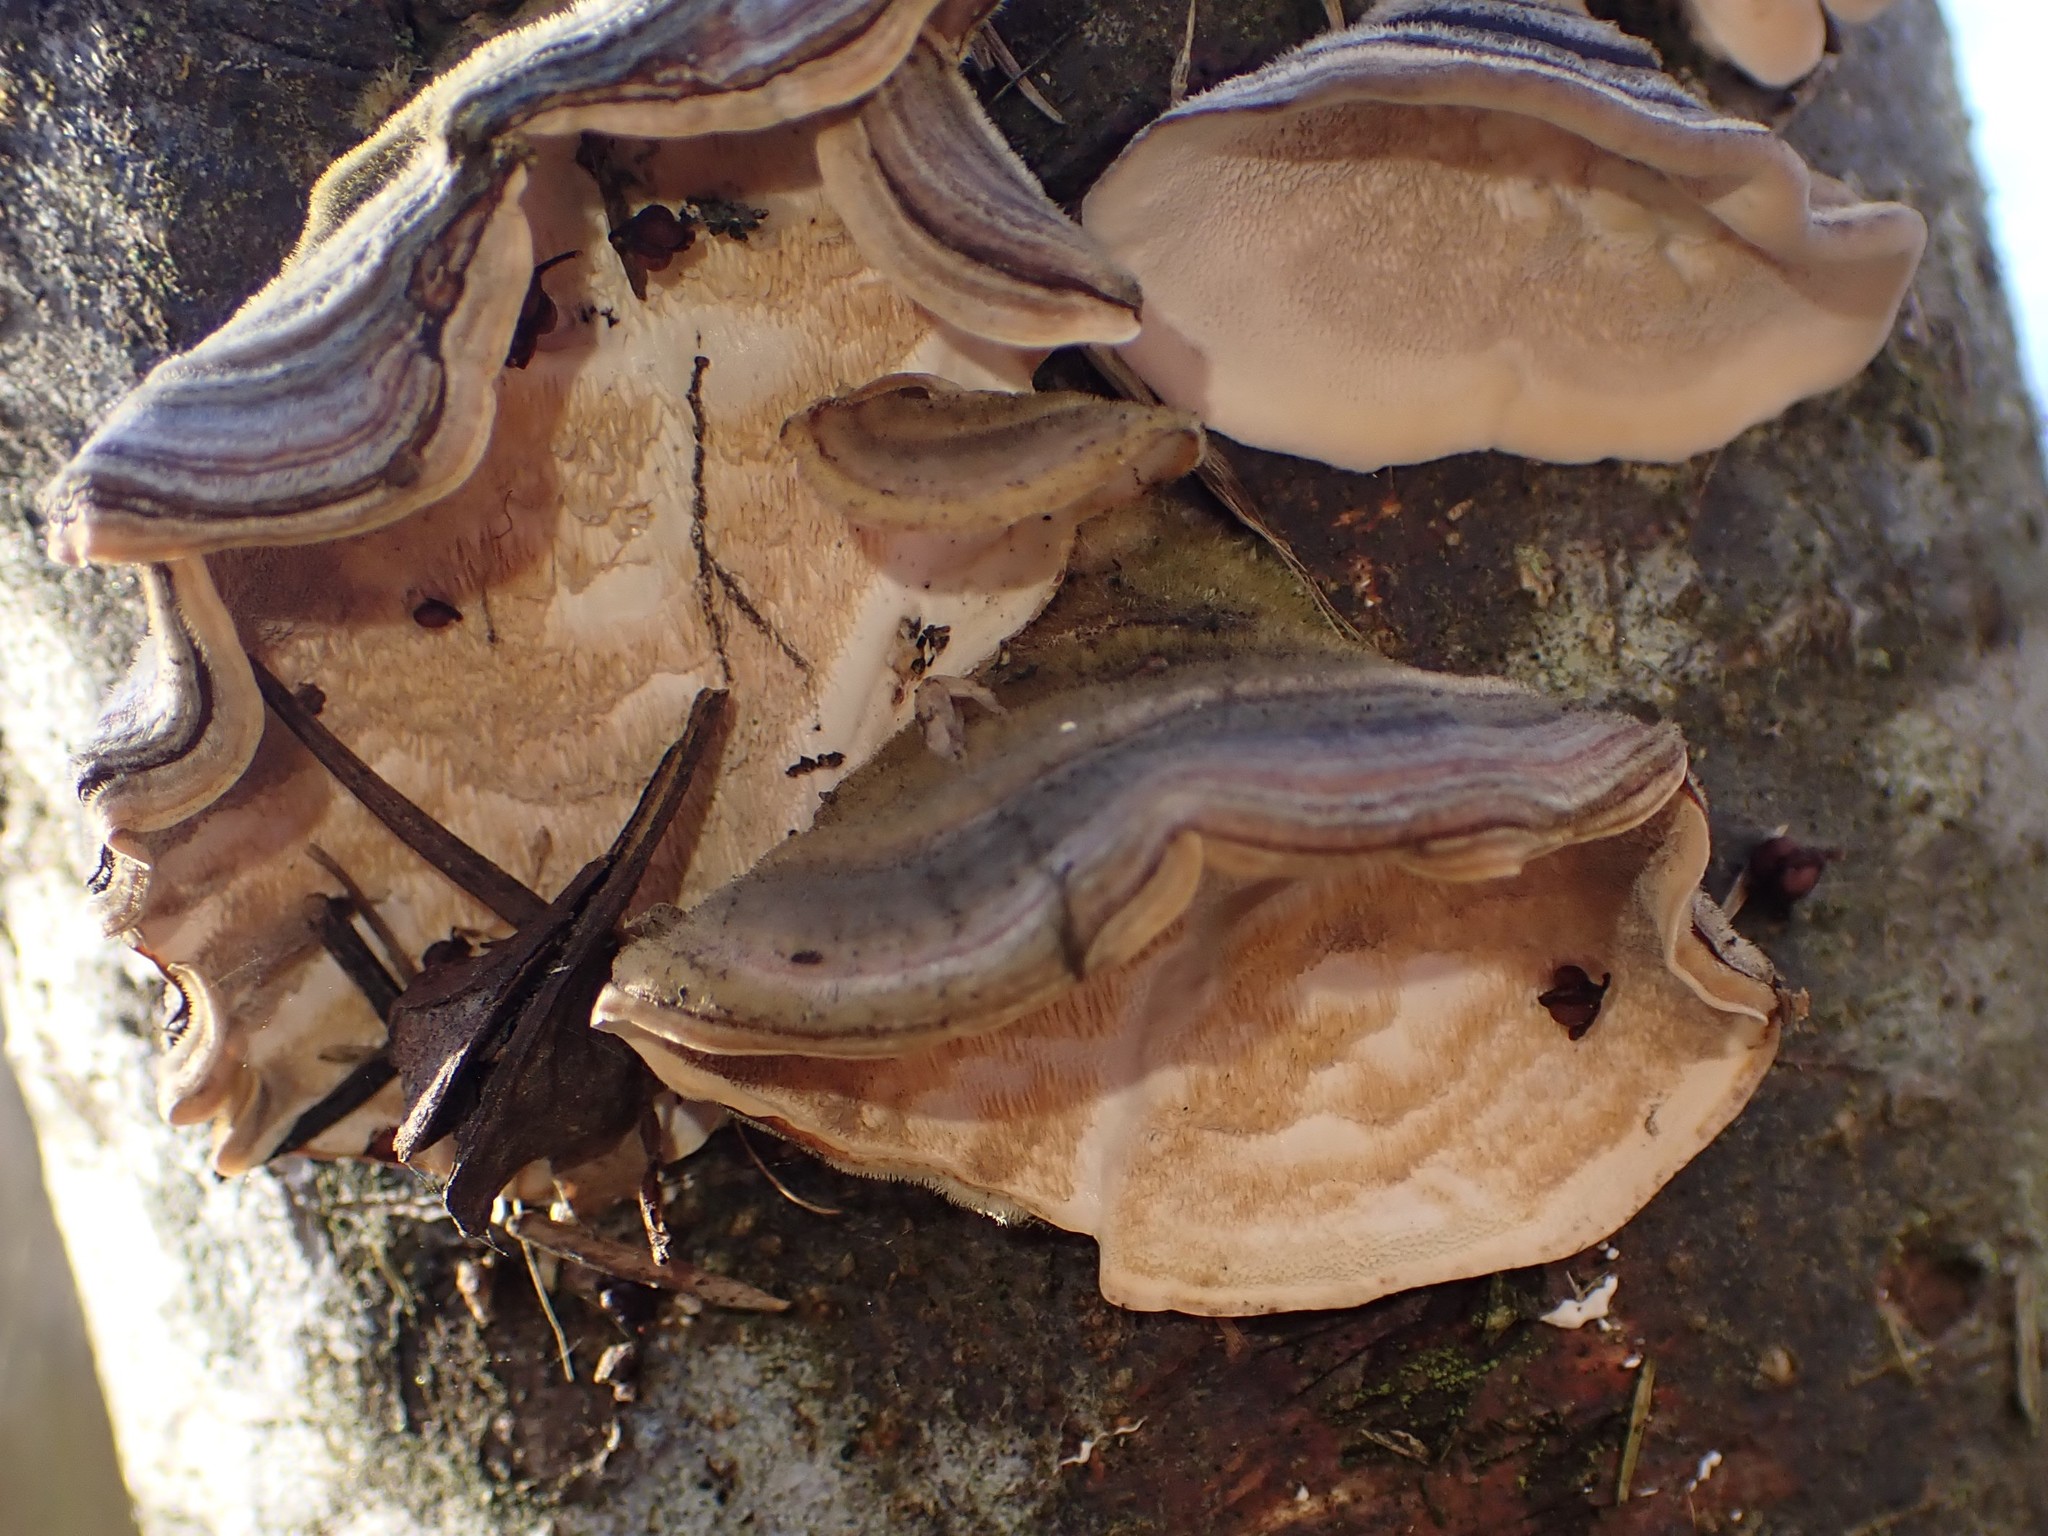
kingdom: Fungi
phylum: Basidiomycota
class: Agaricomycetes
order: Polyporales
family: Polyporaceae
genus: Trametes
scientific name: Trametes versicolor
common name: Turkeytail
